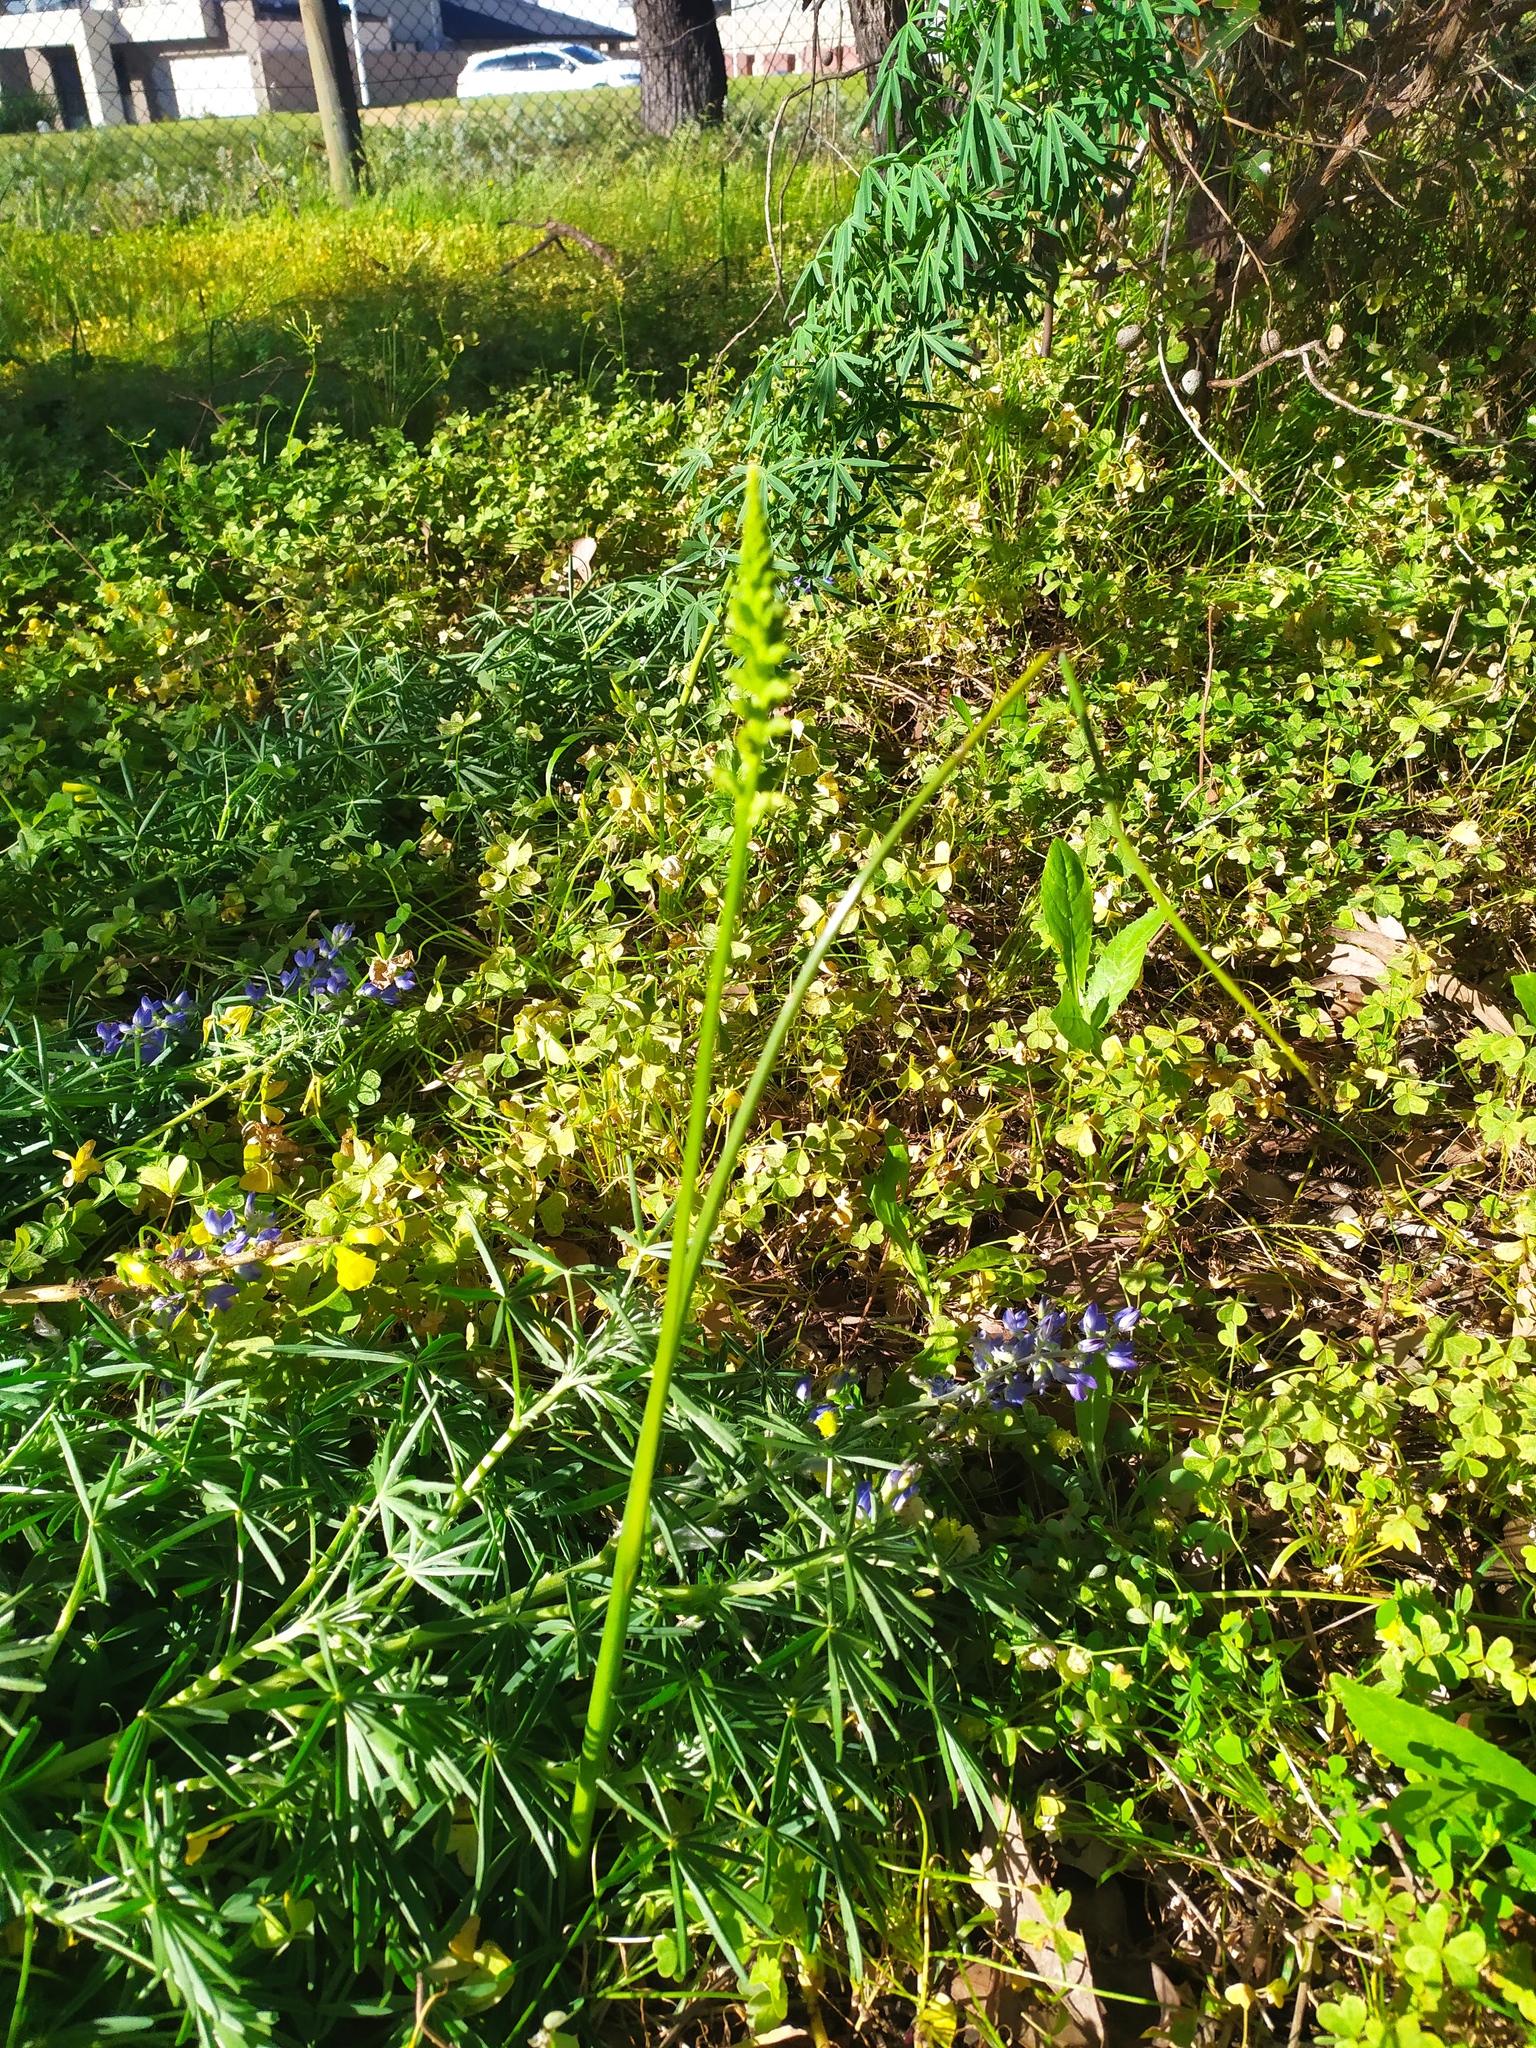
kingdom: Plantae
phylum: Tracheophyta
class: Liliopsida
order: Asparagales
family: Orchidaceae
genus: Microtis
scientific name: Microtis media
